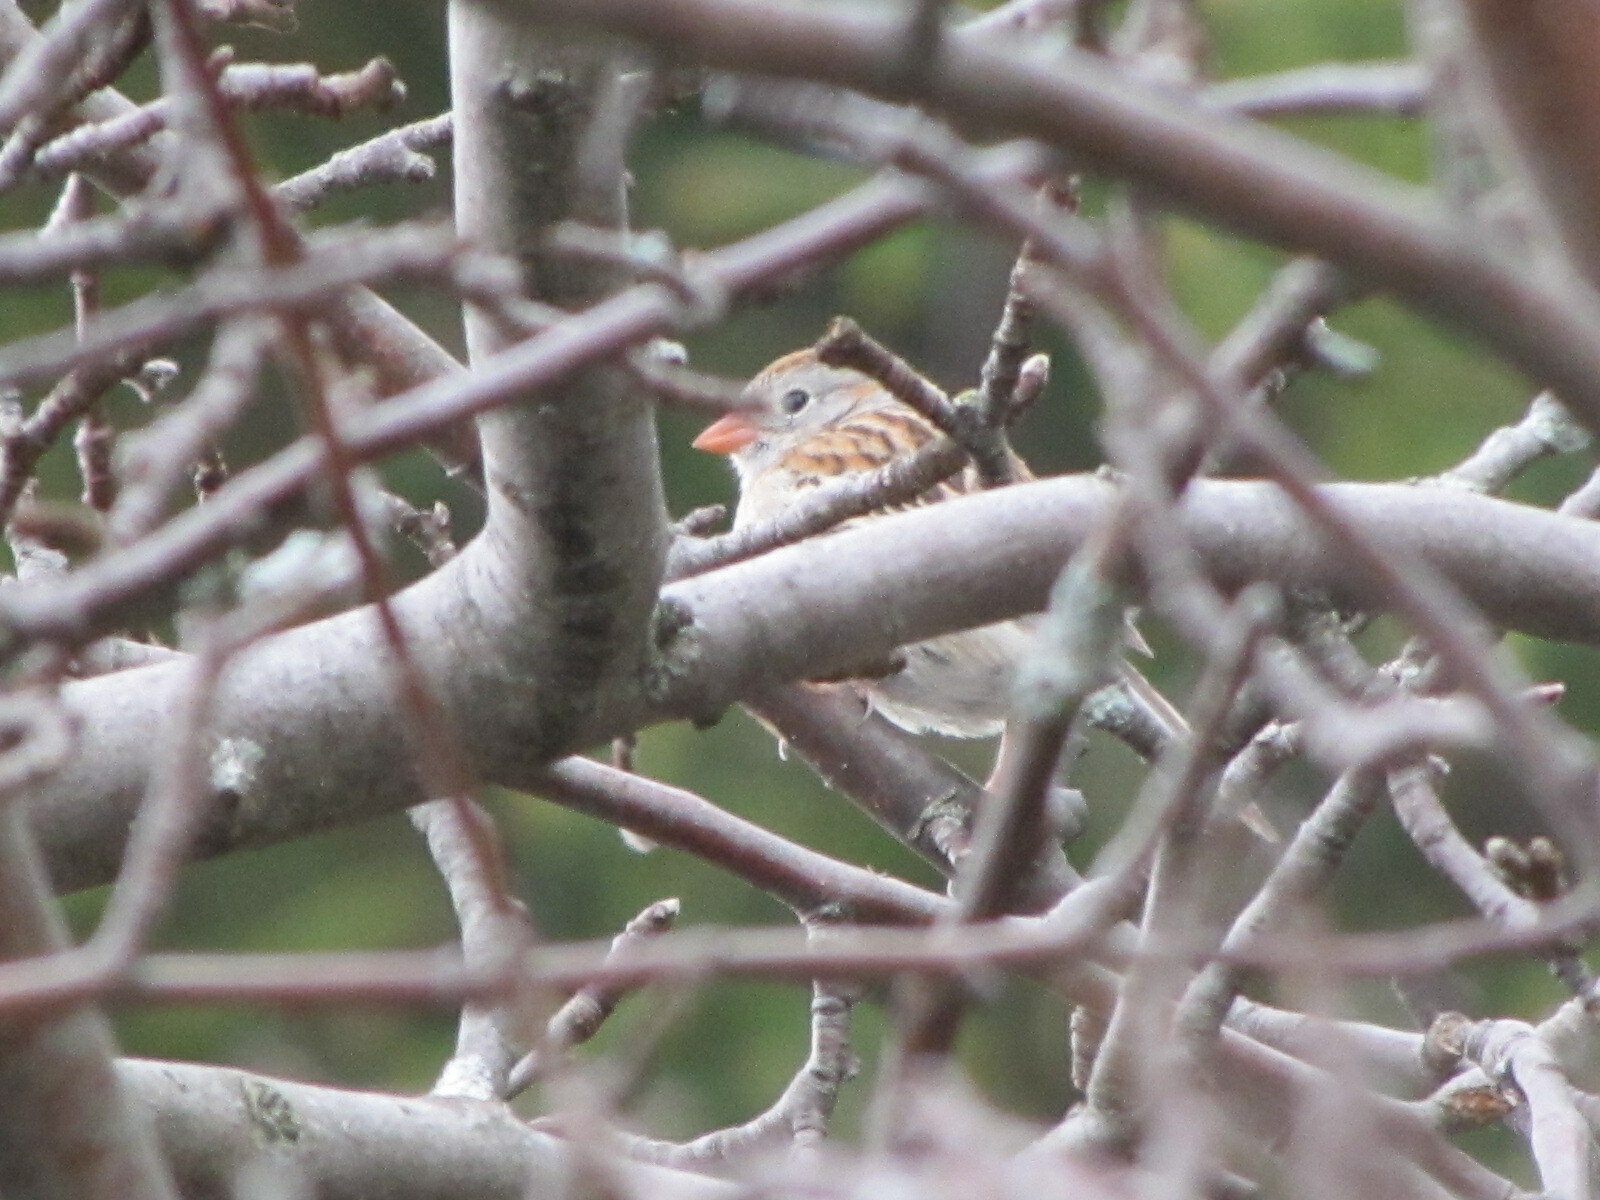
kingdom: Animalia
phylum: Chordata
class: Aves
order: Passeriformes
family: Passerellidae
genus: Spizella
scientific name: Spizella pusilla
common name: Field sparrow
